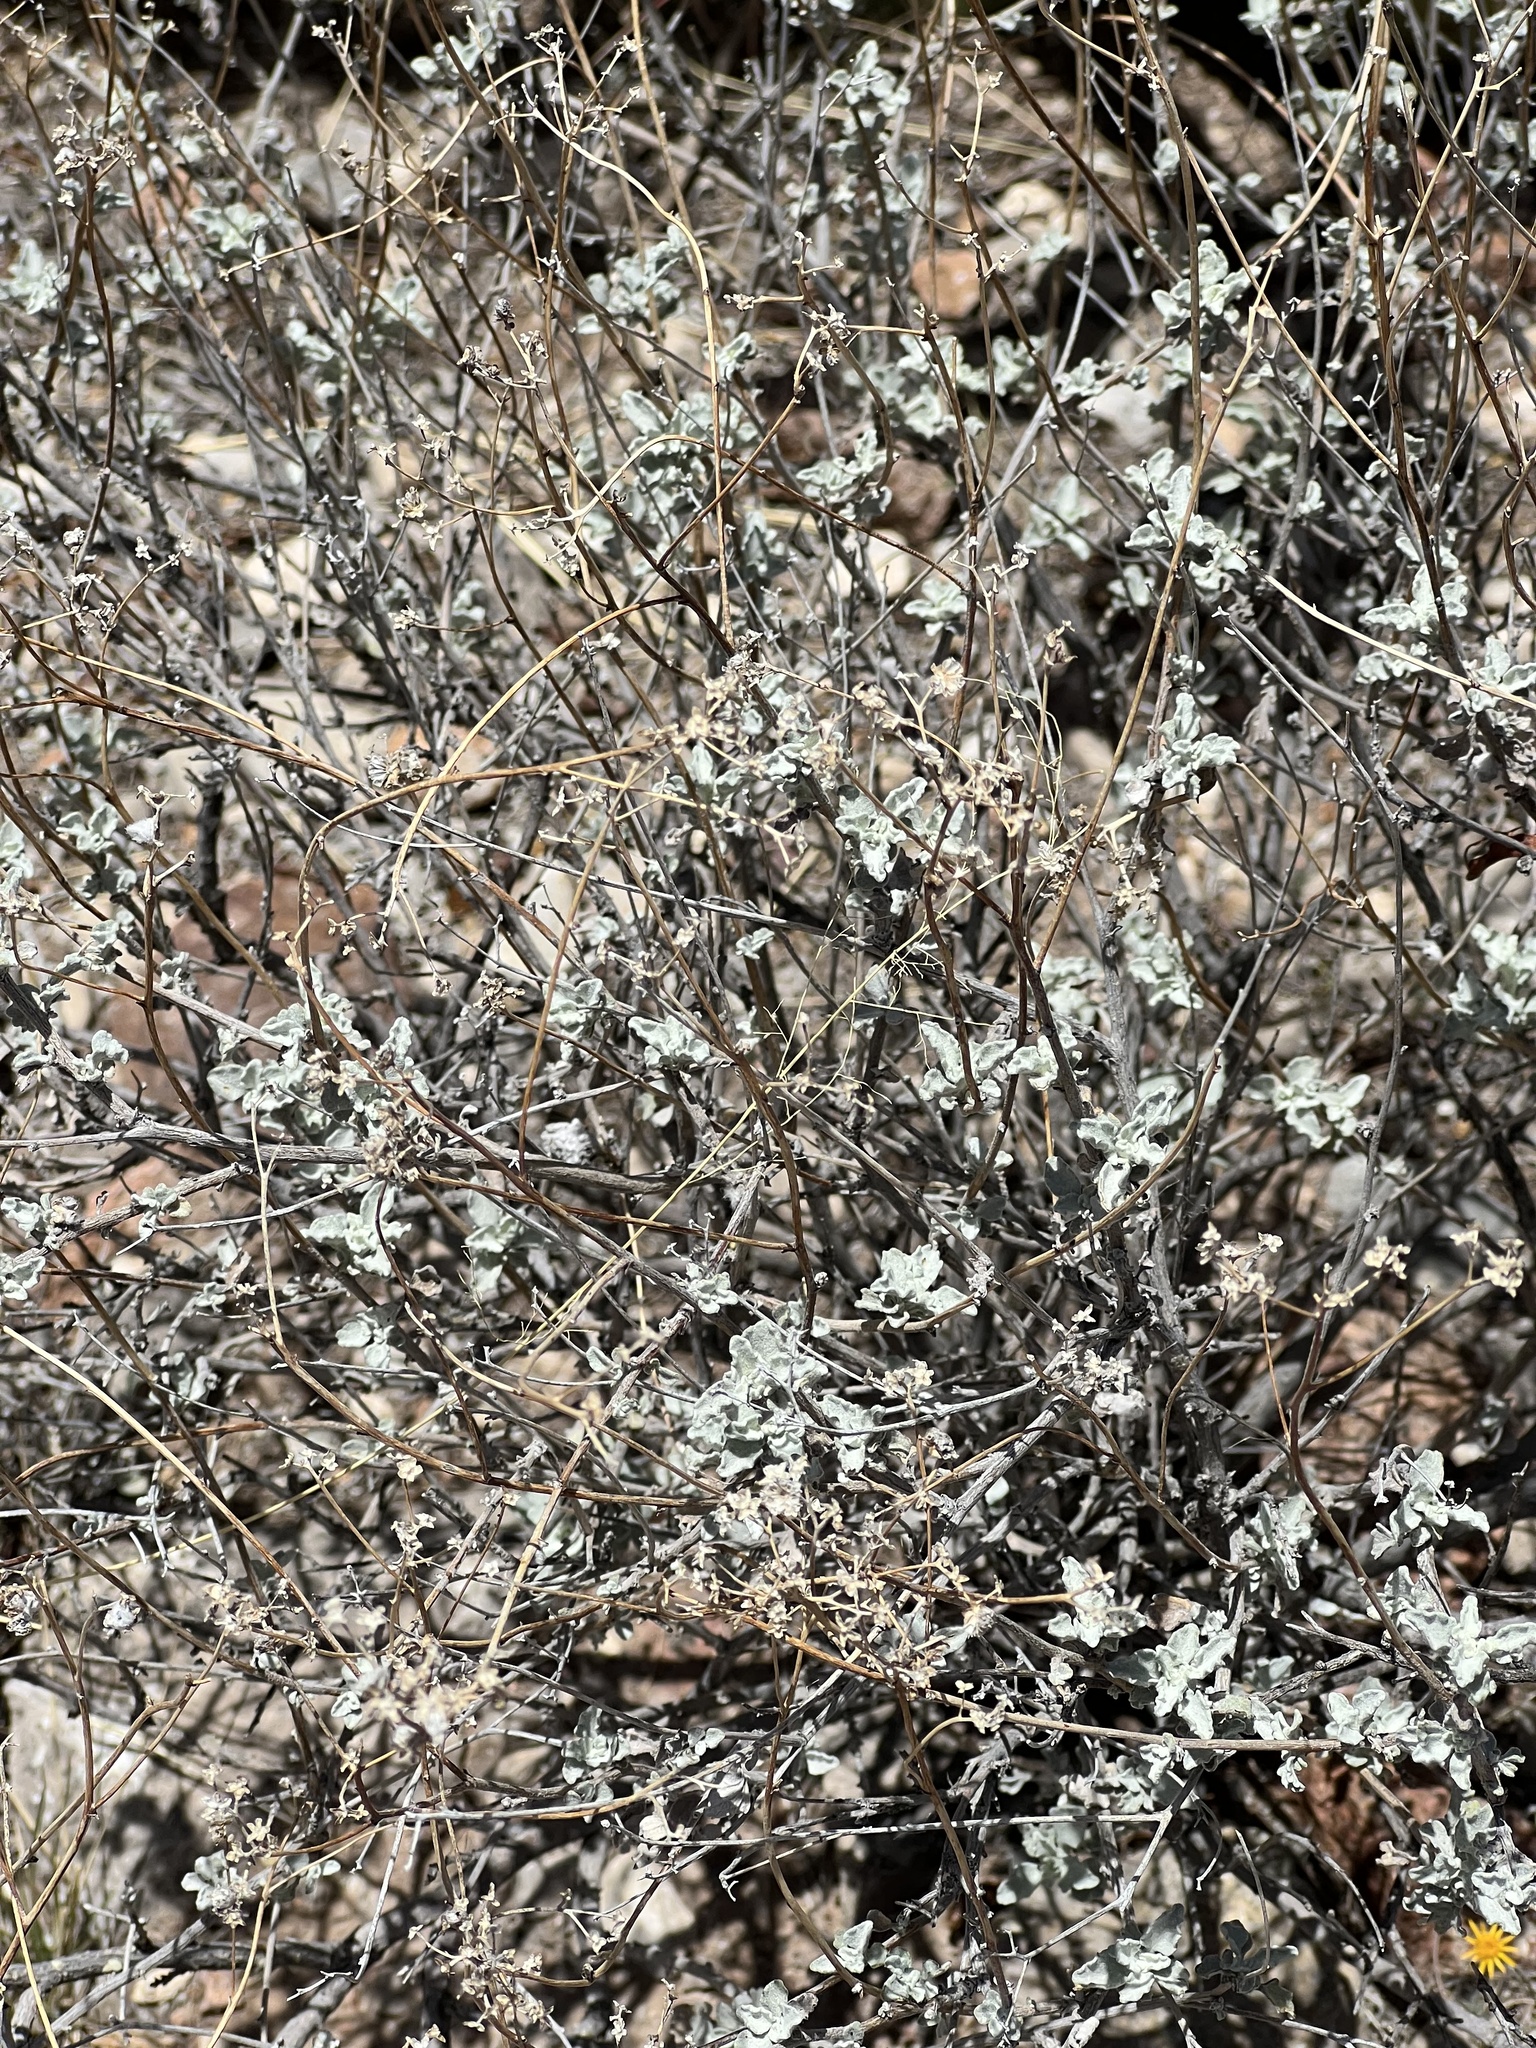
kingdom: Plantae
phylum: Tracheophyta
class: Magnoliopsida
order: Asterales
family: Asteraceae
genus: Parthenium
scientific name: Parthenium incanum
